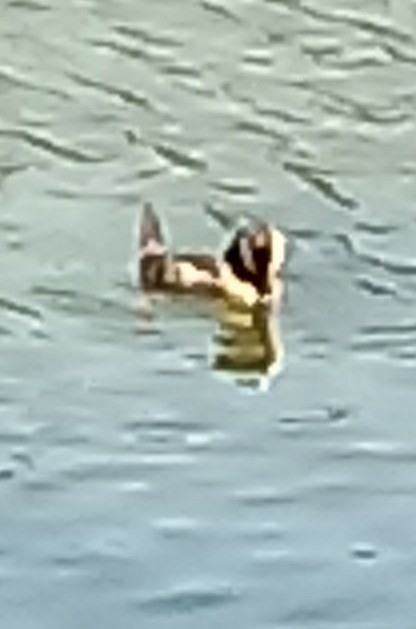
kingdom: Animalia
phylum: Chordata
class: Aves
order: Anseriformes
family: Anatidae
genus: Oxyura
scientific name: Oxyura jamaicensis
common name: Ruddy duck
